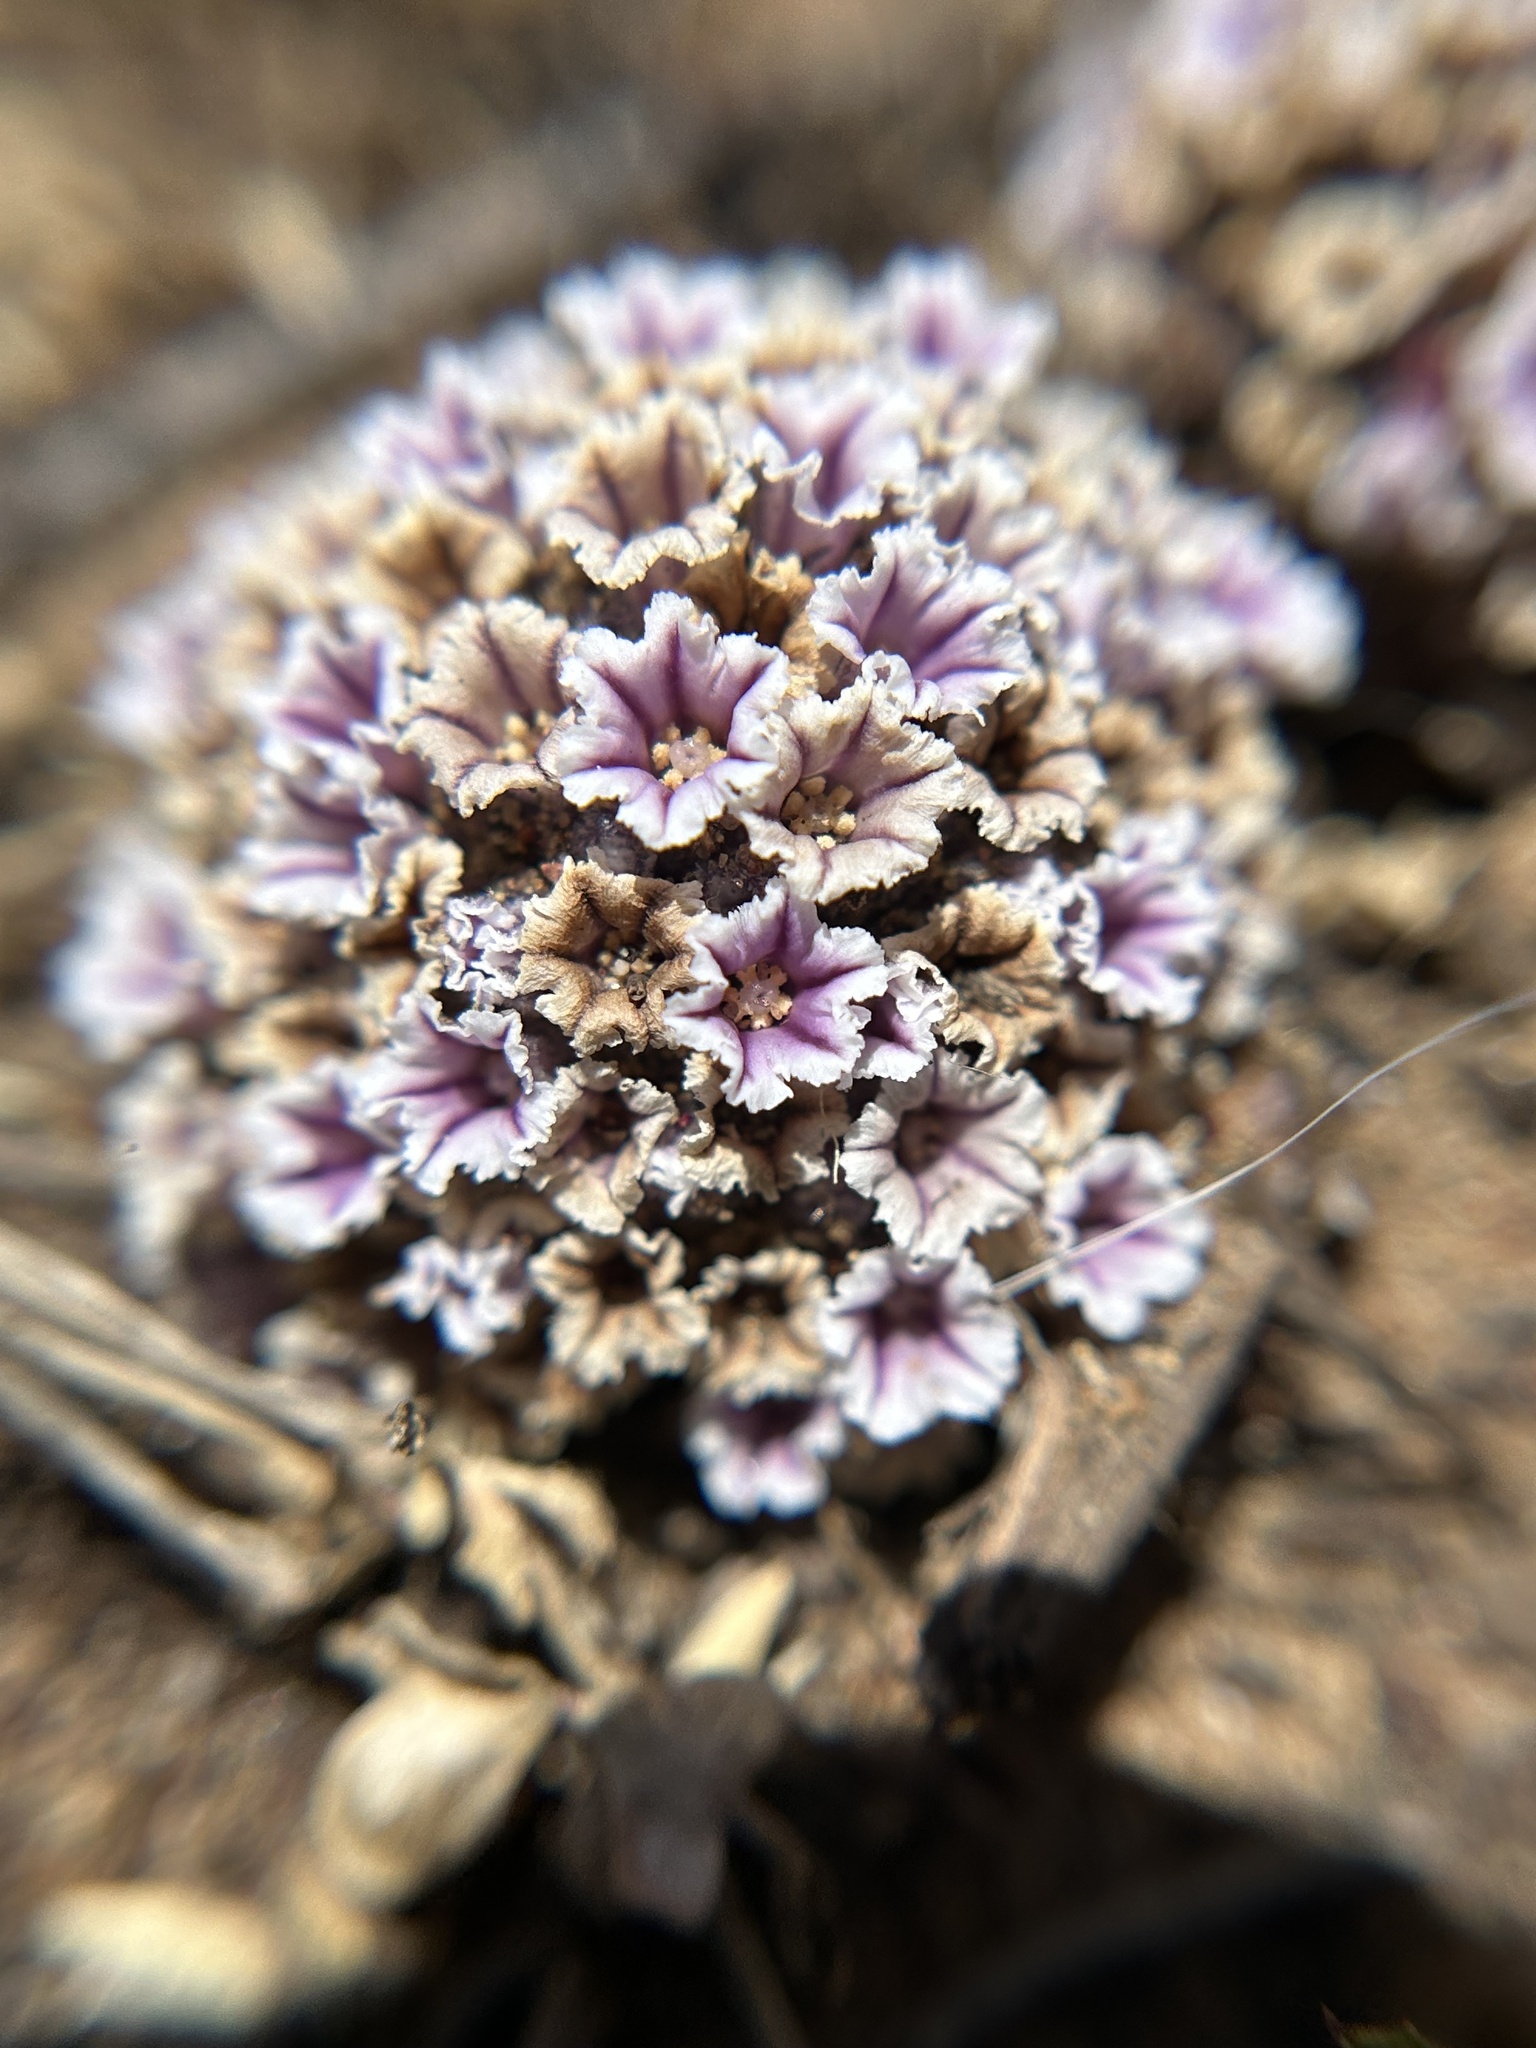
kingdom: Plantae
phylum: Tracheophyta
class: Magnoliopsida
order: Boraginales
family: Lennoaceae
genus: Pholisma
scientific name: Pholisma arenarium
